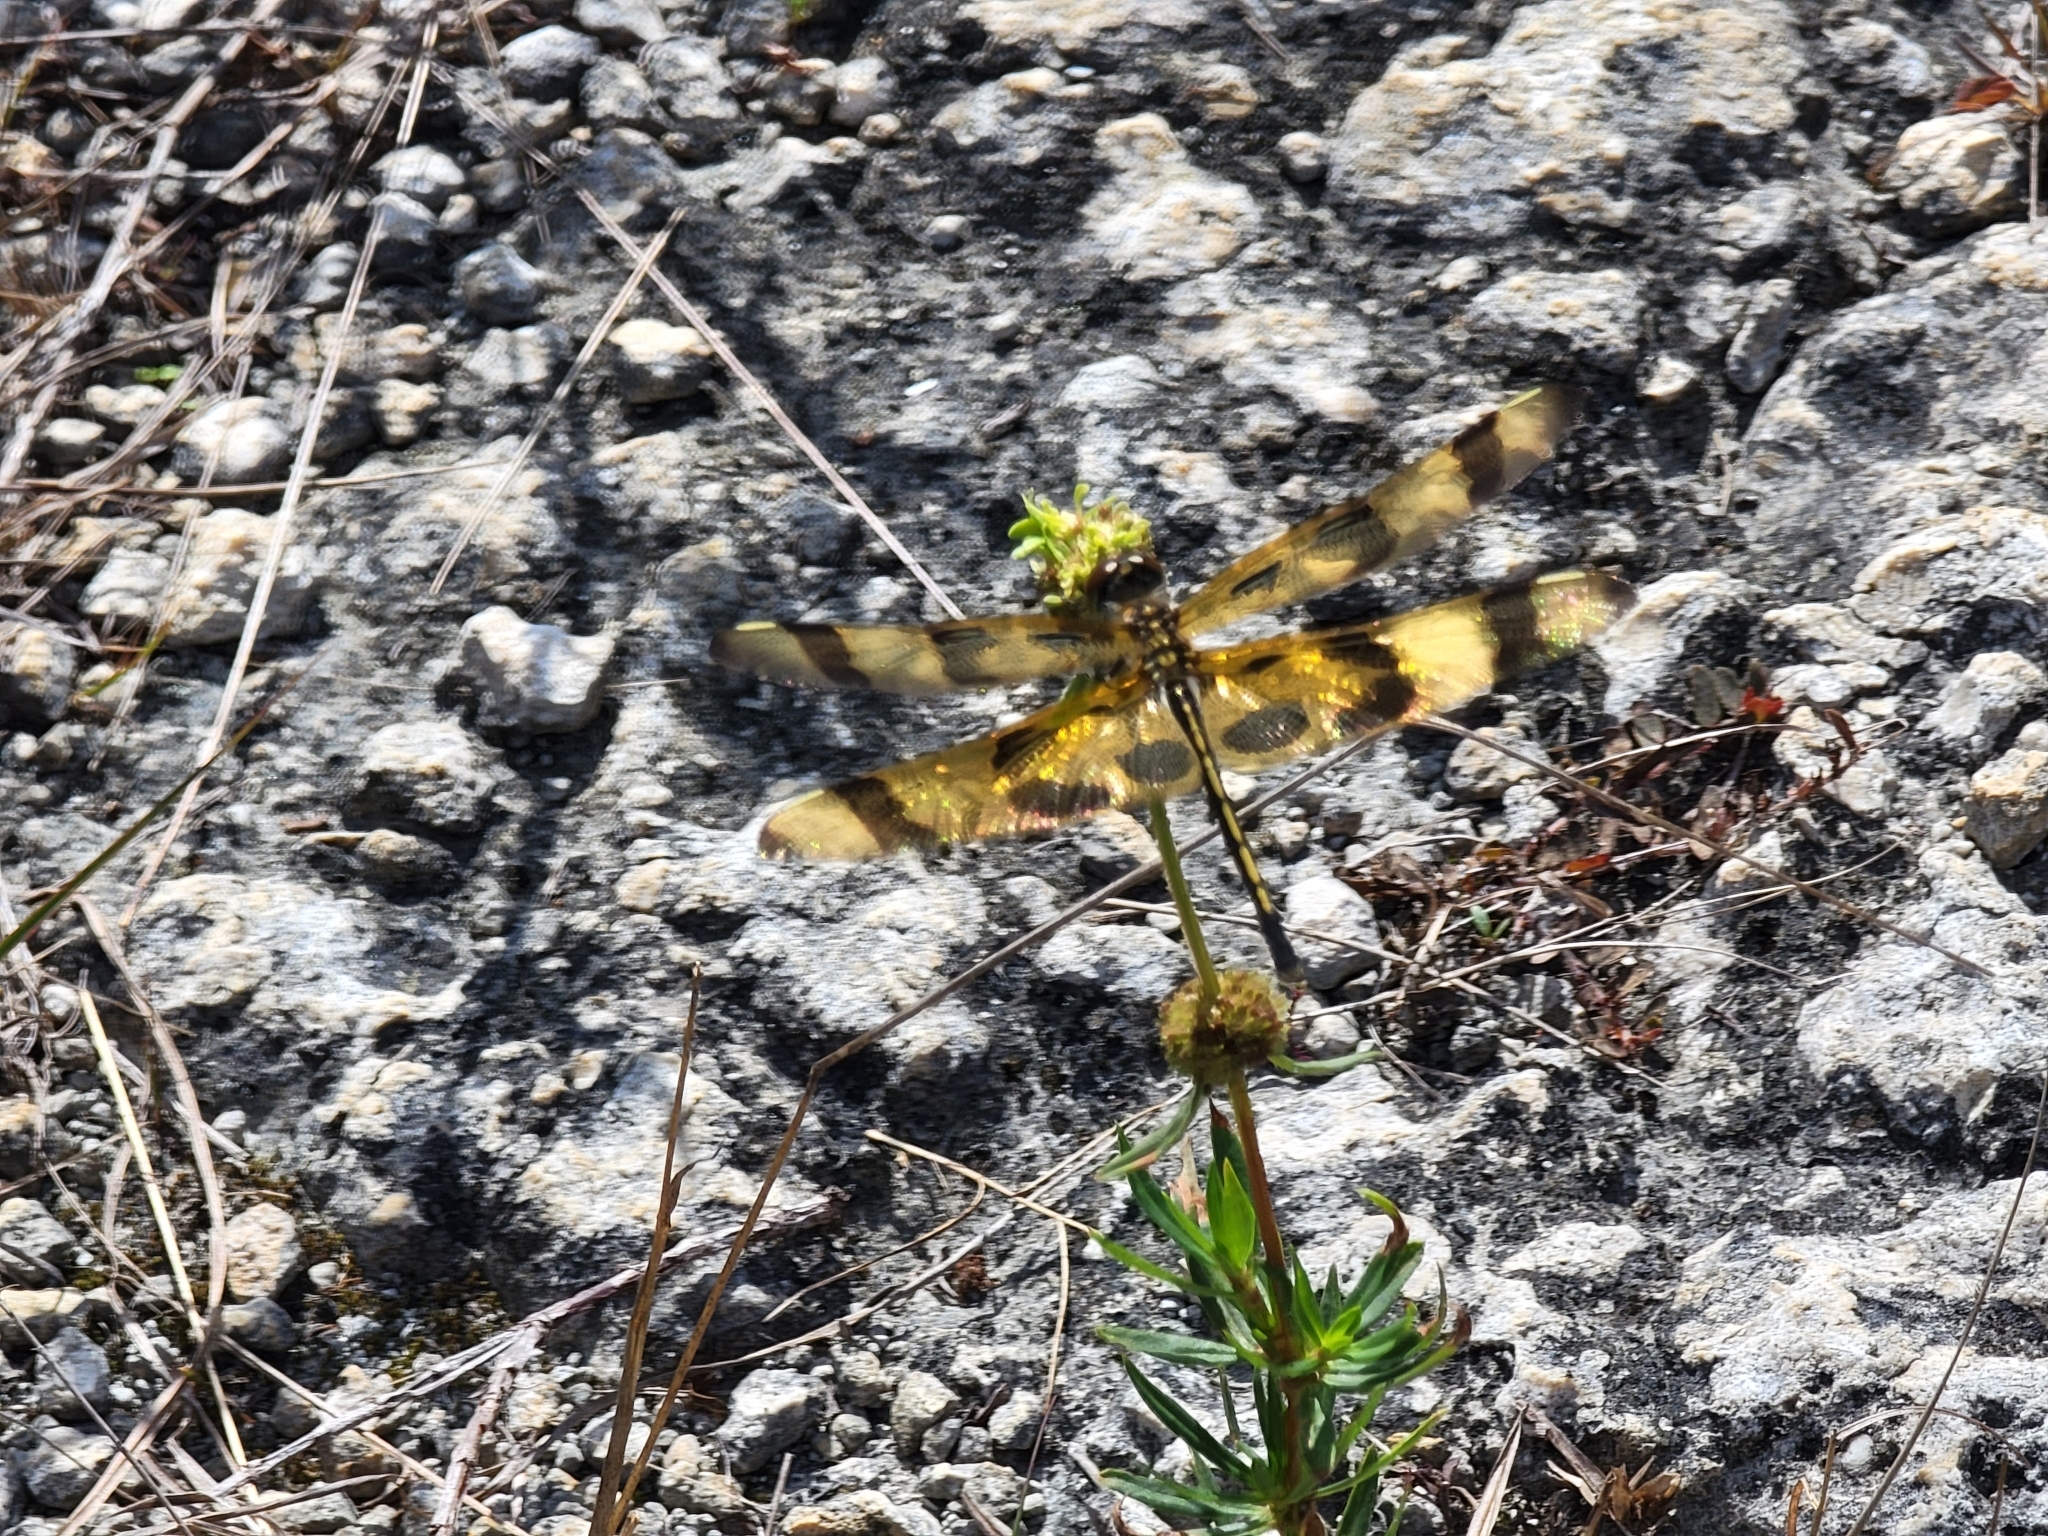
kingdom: Animalia
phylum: Arthropoda
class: Insecta
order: Odonata
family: Libellulidae
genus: Celithemis
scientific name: Celithemis eponina
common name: Halloween pennant
